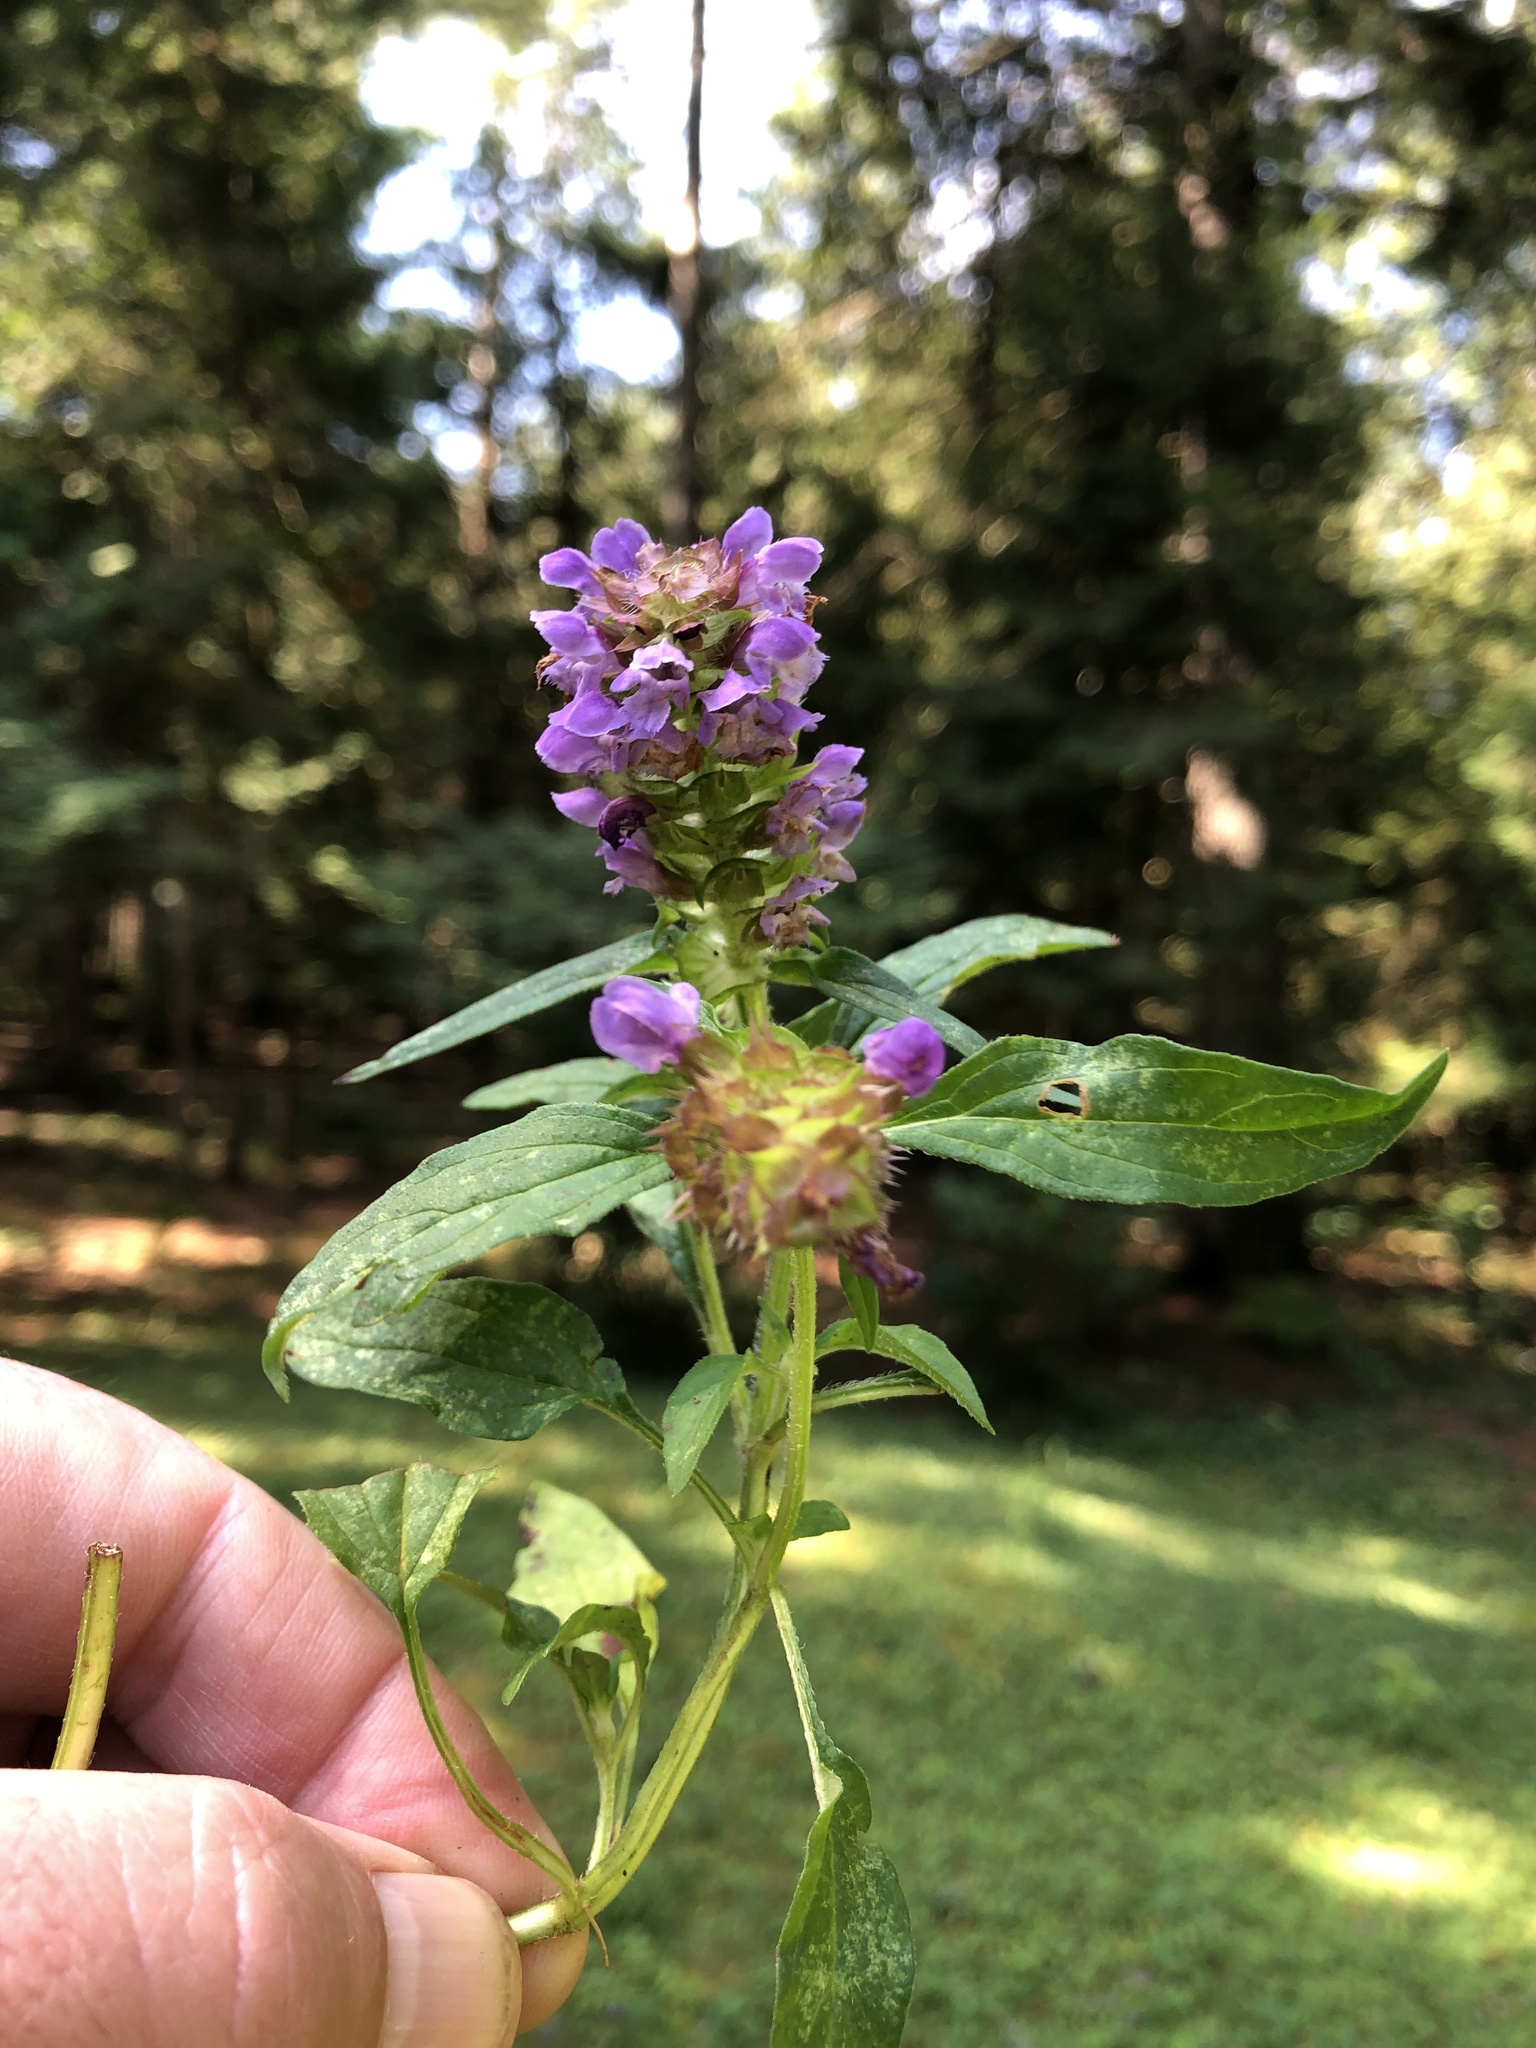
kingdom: Plantae
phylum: Tracheophyta
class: Magnoliopsida
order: Lamiales
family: Lamiaceae
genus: Prunella
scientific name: Prunella vulgaris
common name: Heal-all
